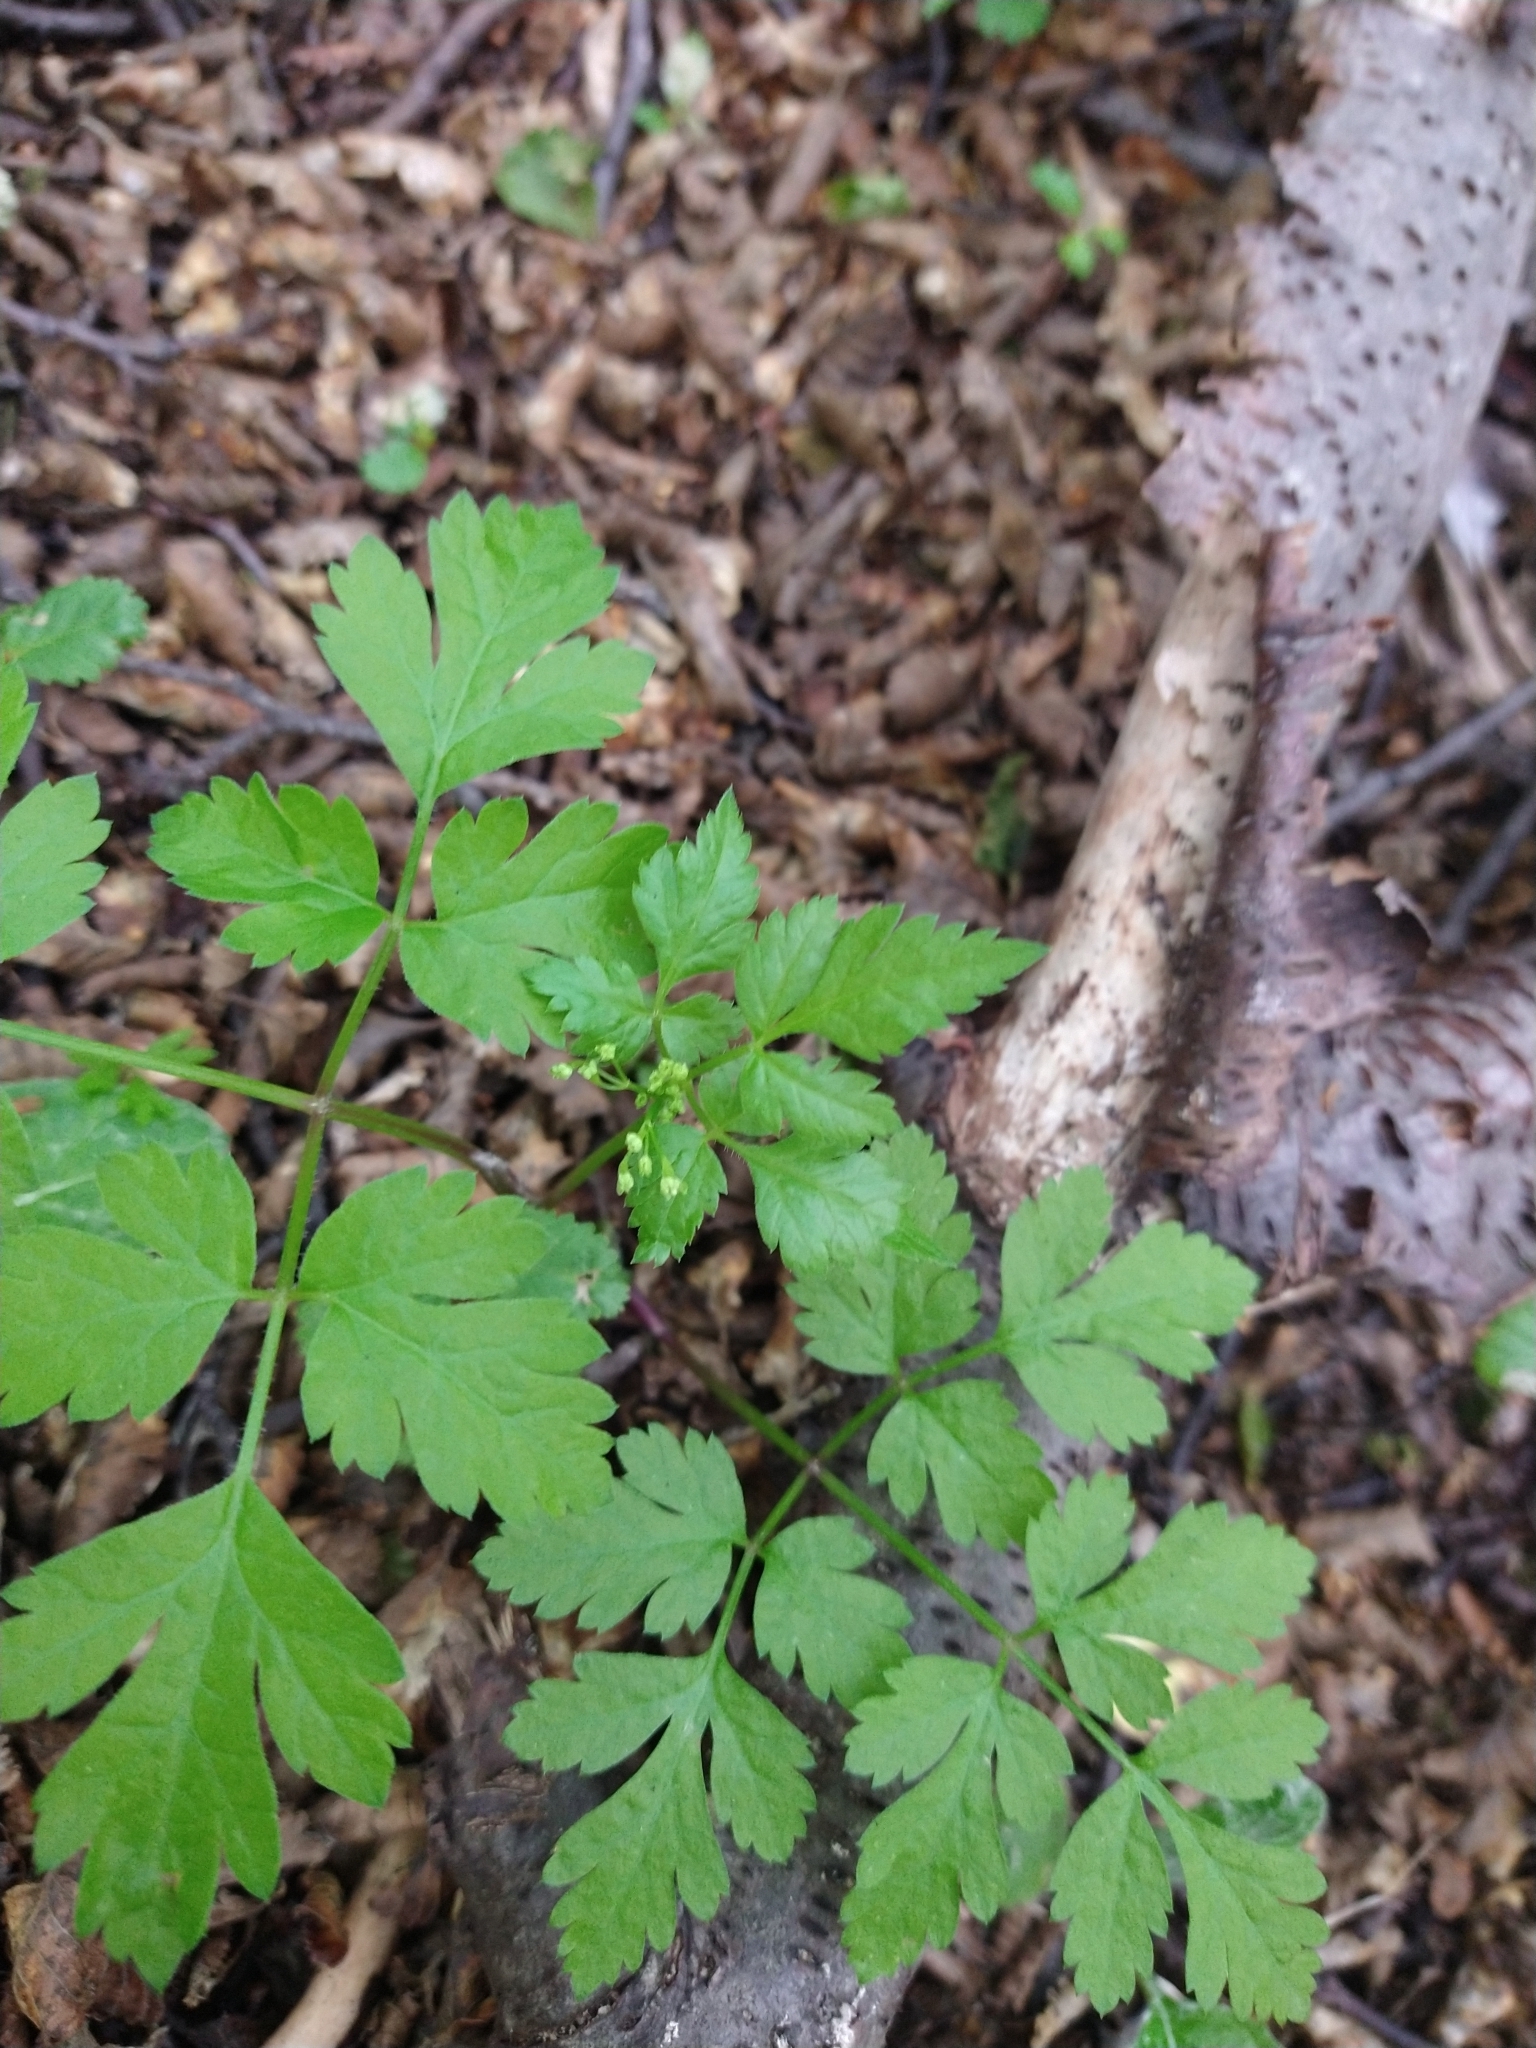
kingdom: Plantae
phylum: Tracheophyta
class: Magnoliopsida
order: Apiales
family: Apiaceae
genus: Osmorhiza
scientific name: Osmorhiza berteroi
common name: Mountain sweet cicely
